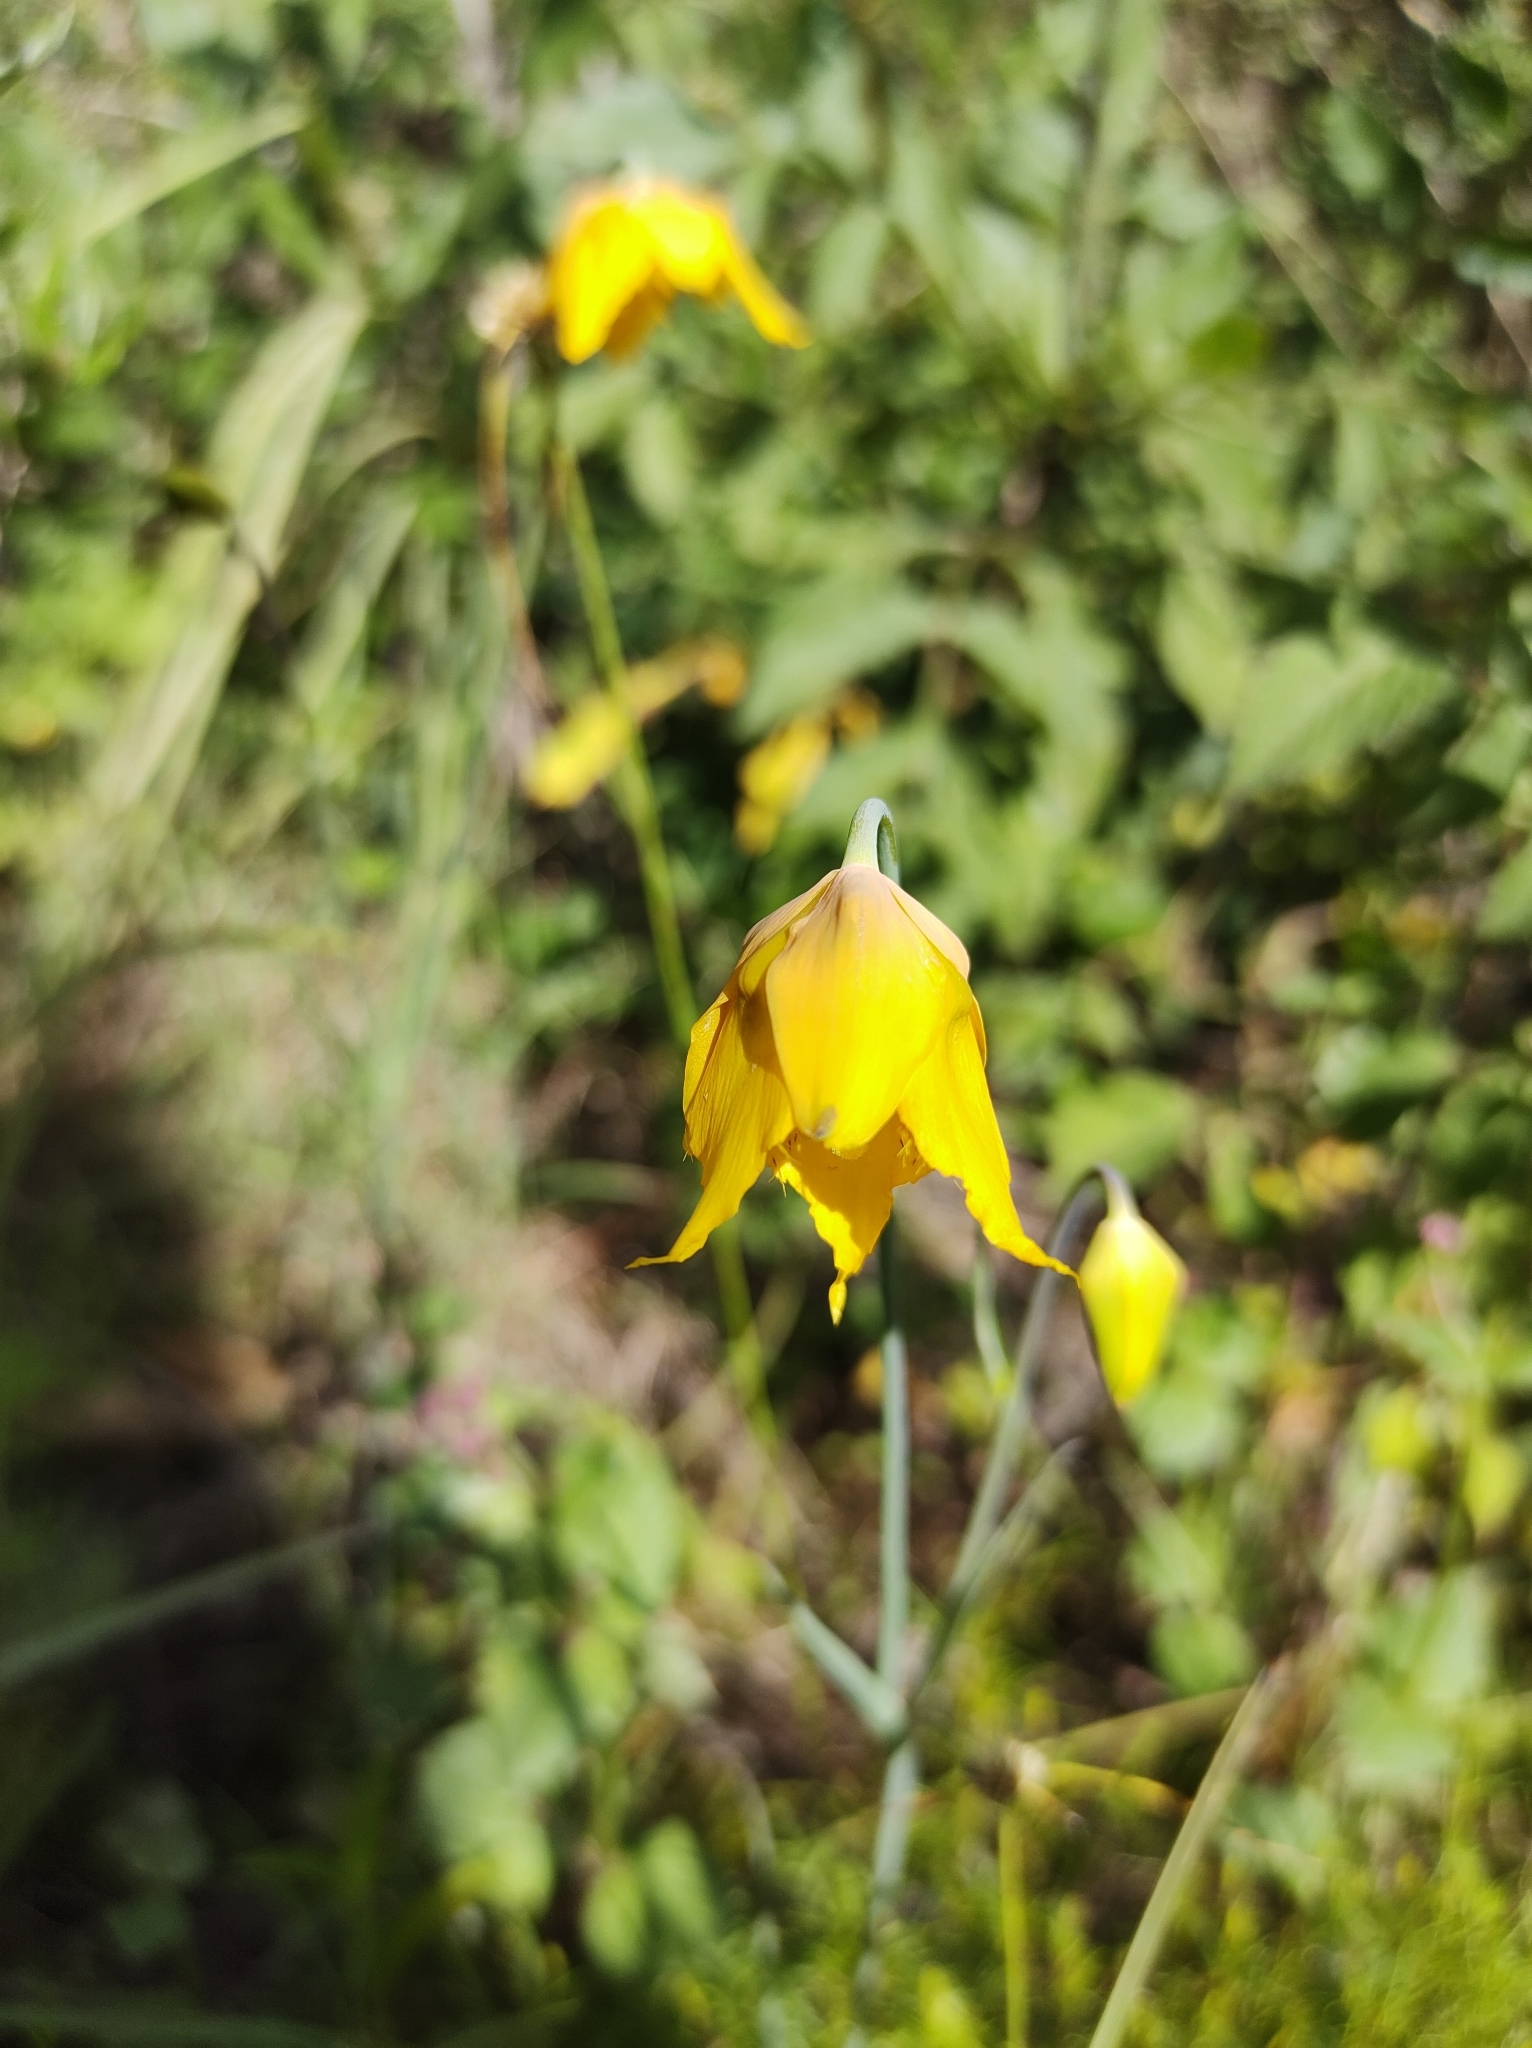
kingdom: Plantae
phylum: Tracheophyta
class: Liliopsida
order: Liliales
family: Liliaceae
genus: Calochortus
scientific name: Calochortus barbatus
